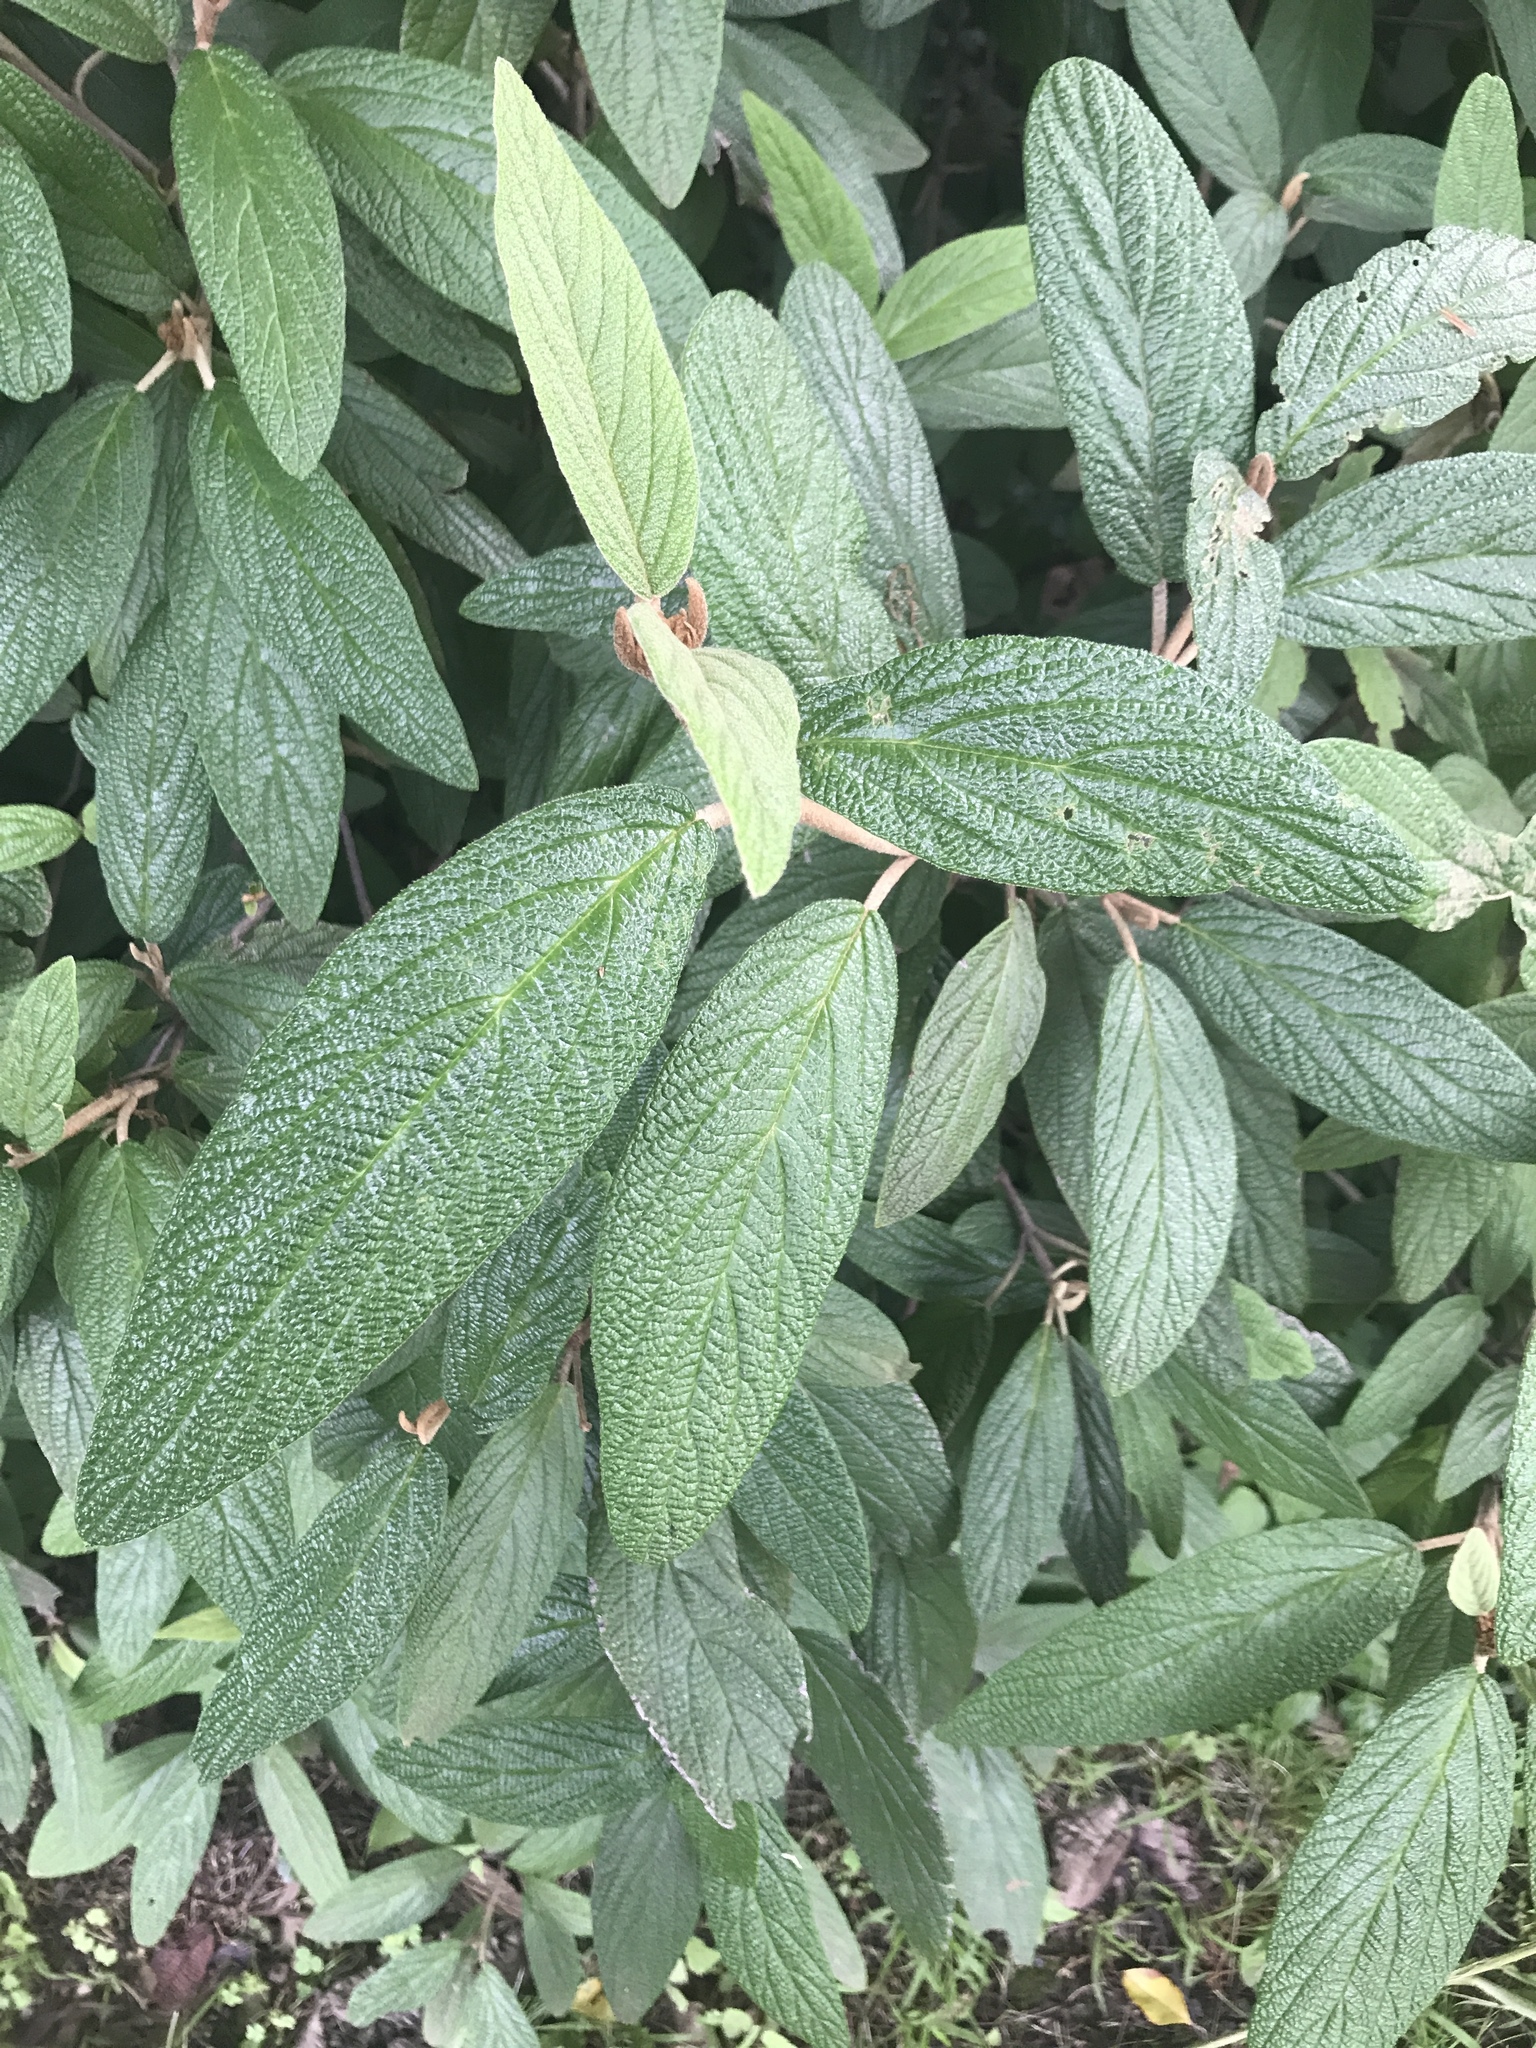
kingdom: Plantae
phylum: Tracheophyta
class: Magnoliopsida
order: Dipsacales
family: Viburnaceae
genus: Viburnum
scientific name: Viburnum rhytidophyllum
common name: Wrinkled viburnum
